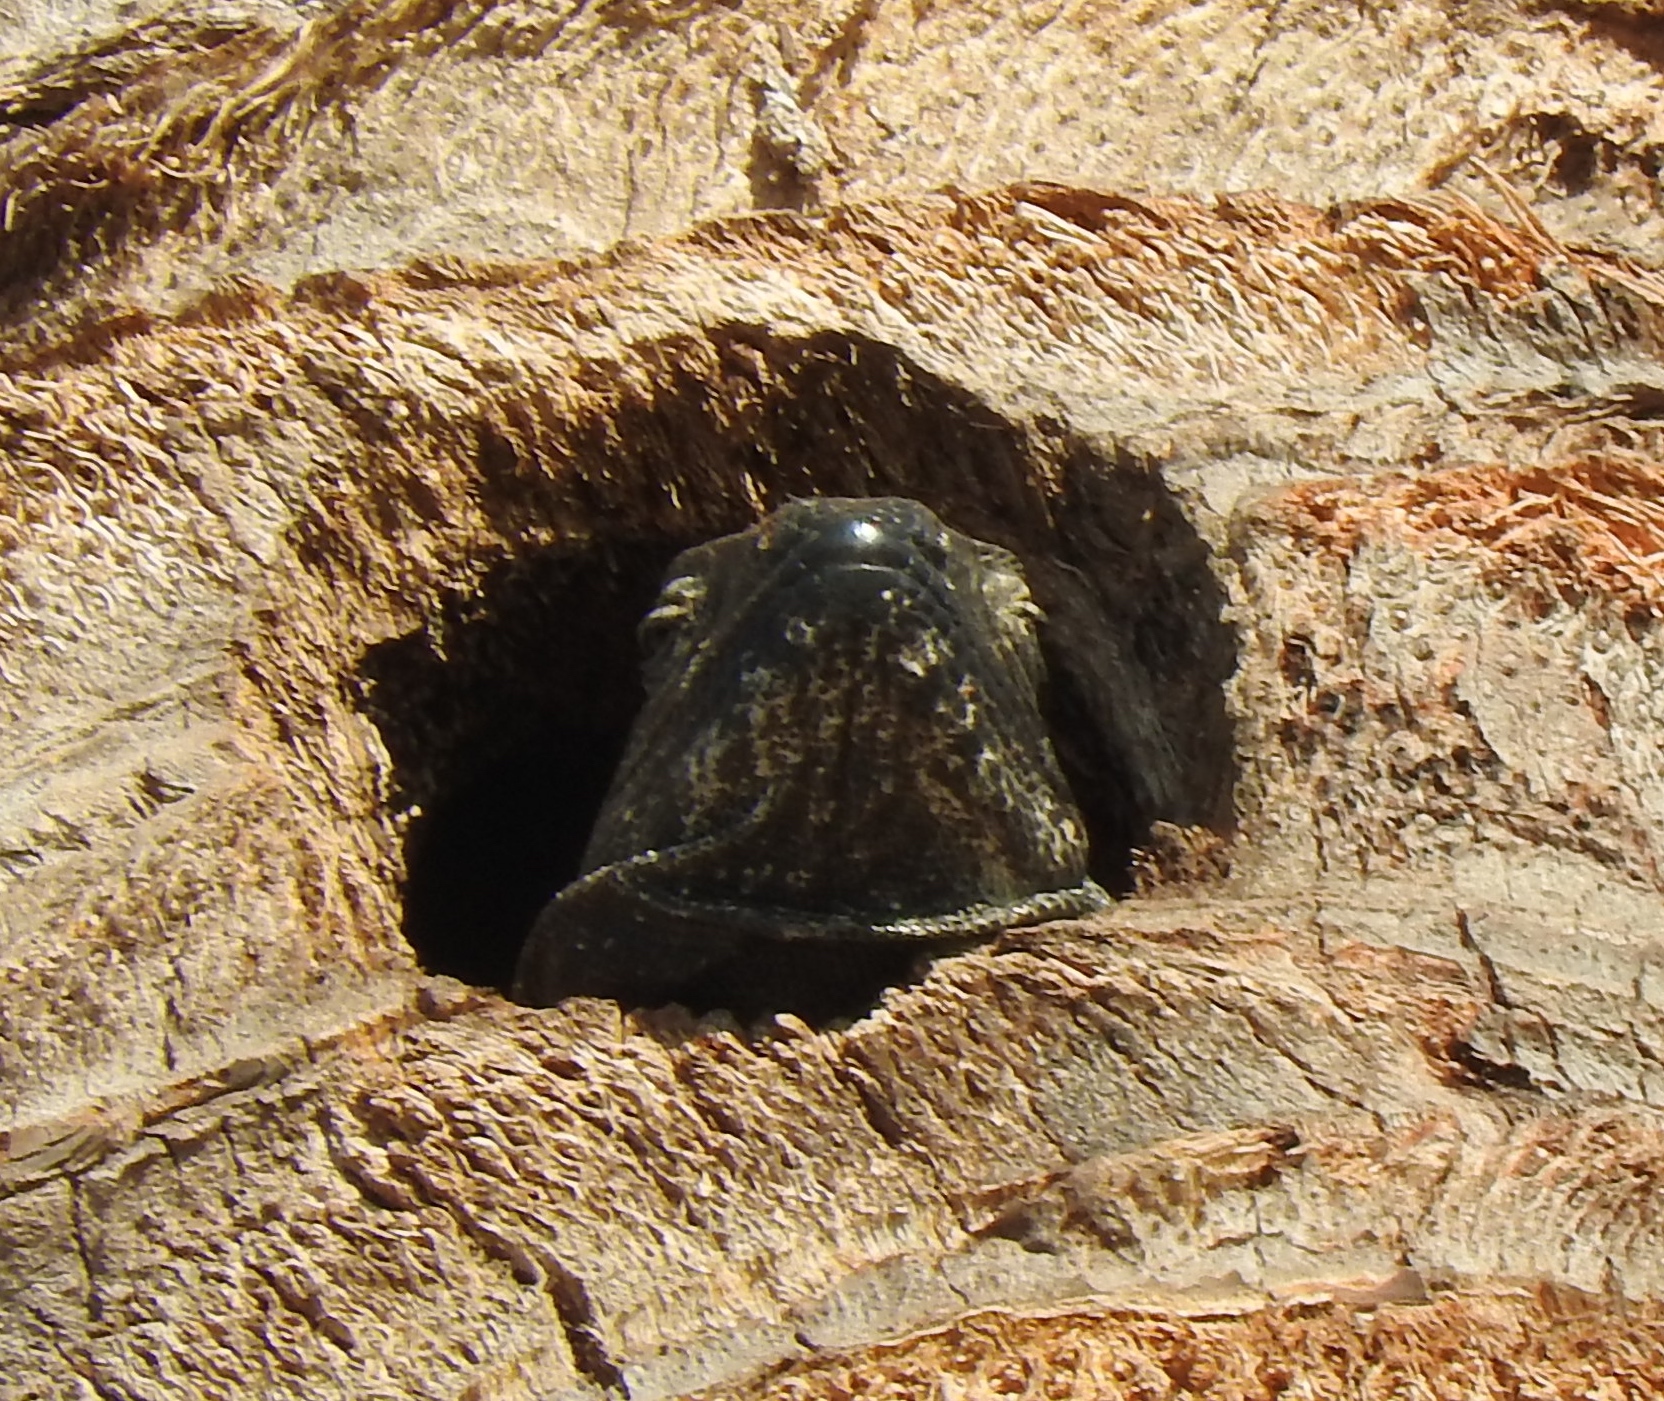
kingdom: Animalia
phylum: Chordata
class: Squamata
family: Iguanidae
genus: Ctenosaura
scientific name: Ctenosaura pectinata
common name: Guerreran spiny-tailed iguana
